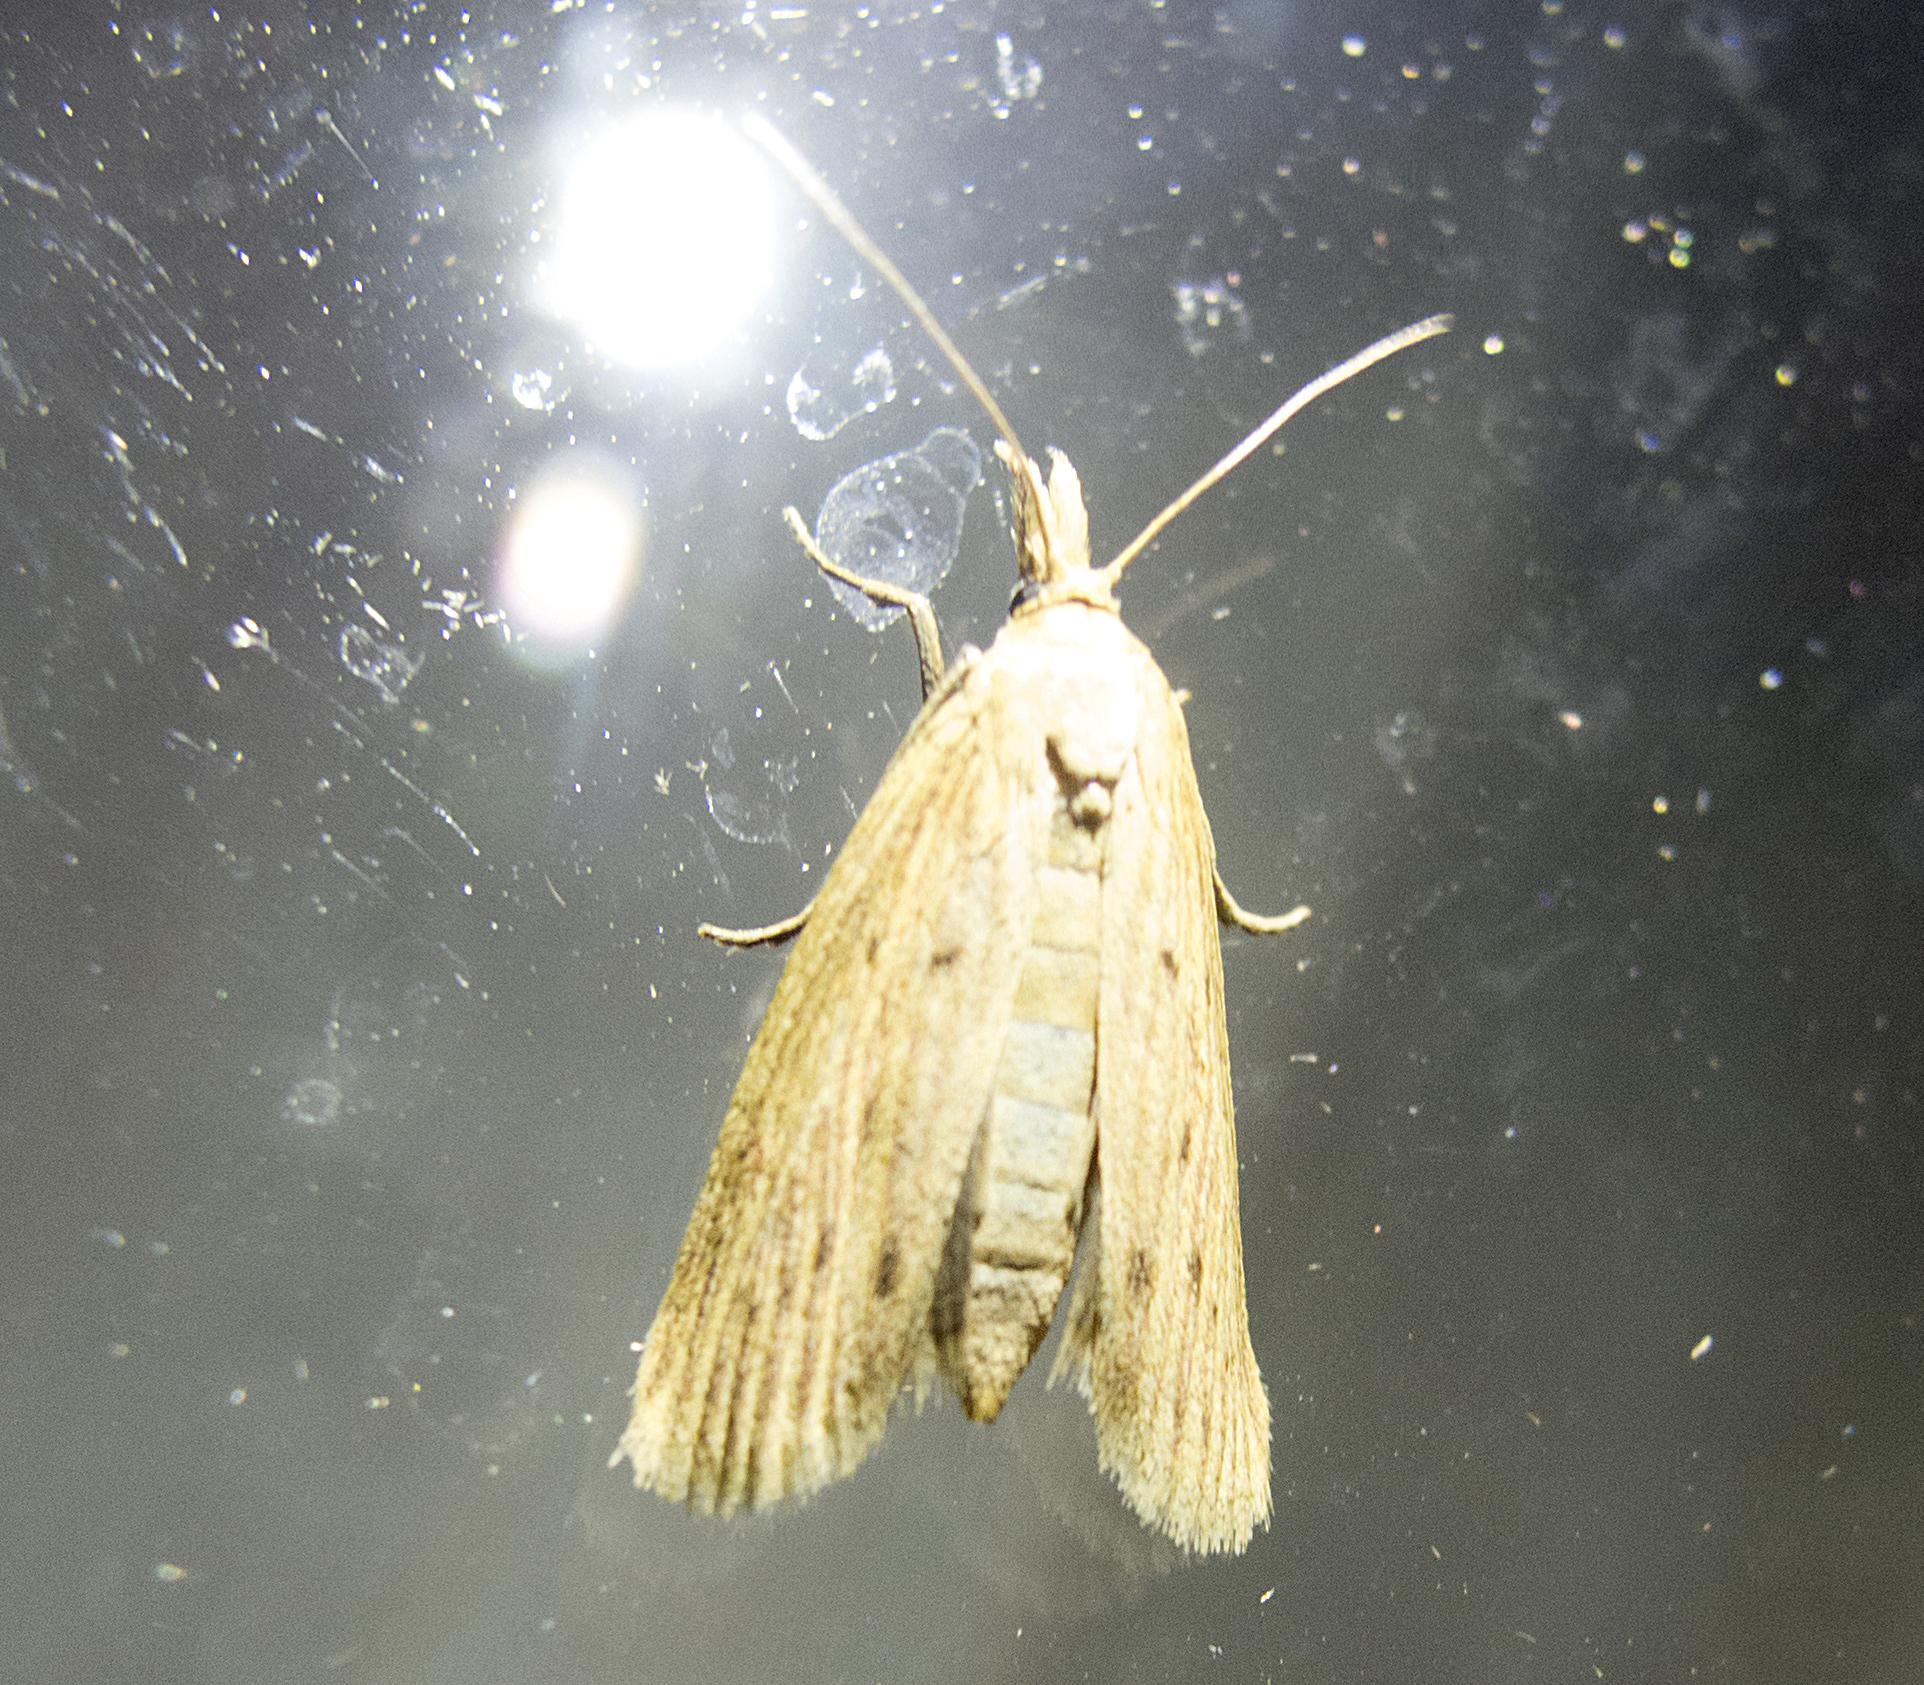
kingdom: Animalia
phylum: Arthropoda
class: Insecta
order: Lepidoptera
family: Pyralidae
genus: Ematheudes
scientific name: Ematheudes punctellus
